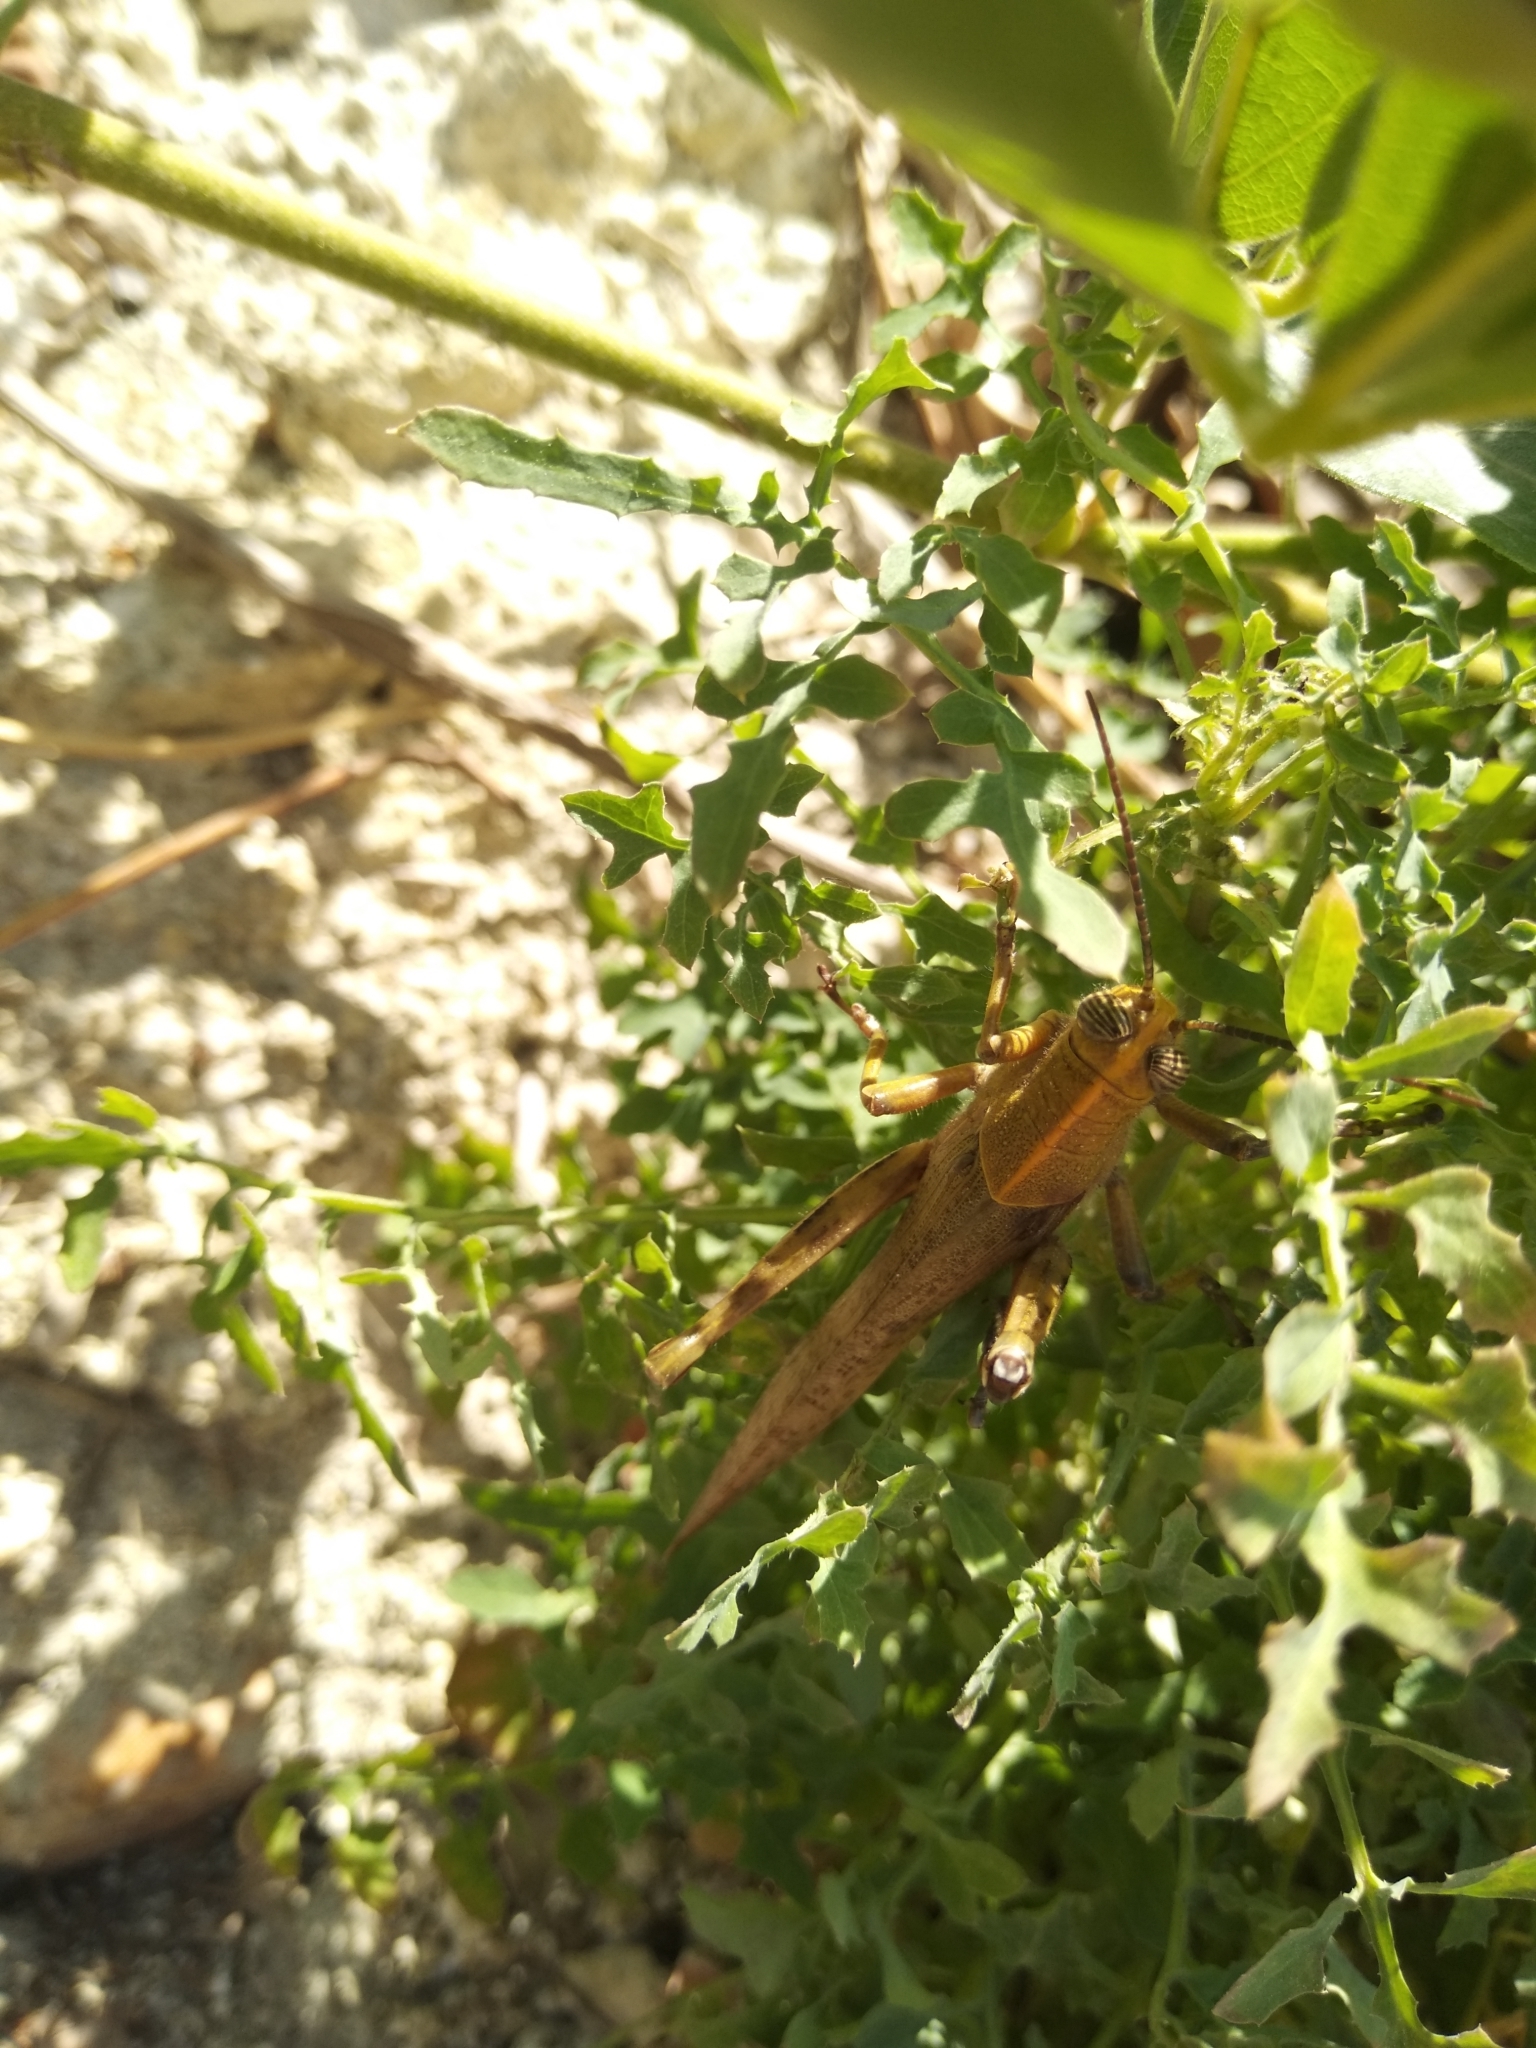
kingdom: Animalia
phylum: Arthropoda
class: Insecta
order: Orthoptera
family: Acrididae
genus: Anacridium
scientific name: Anacridium aegyptium
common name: Egyptian grasshopper
